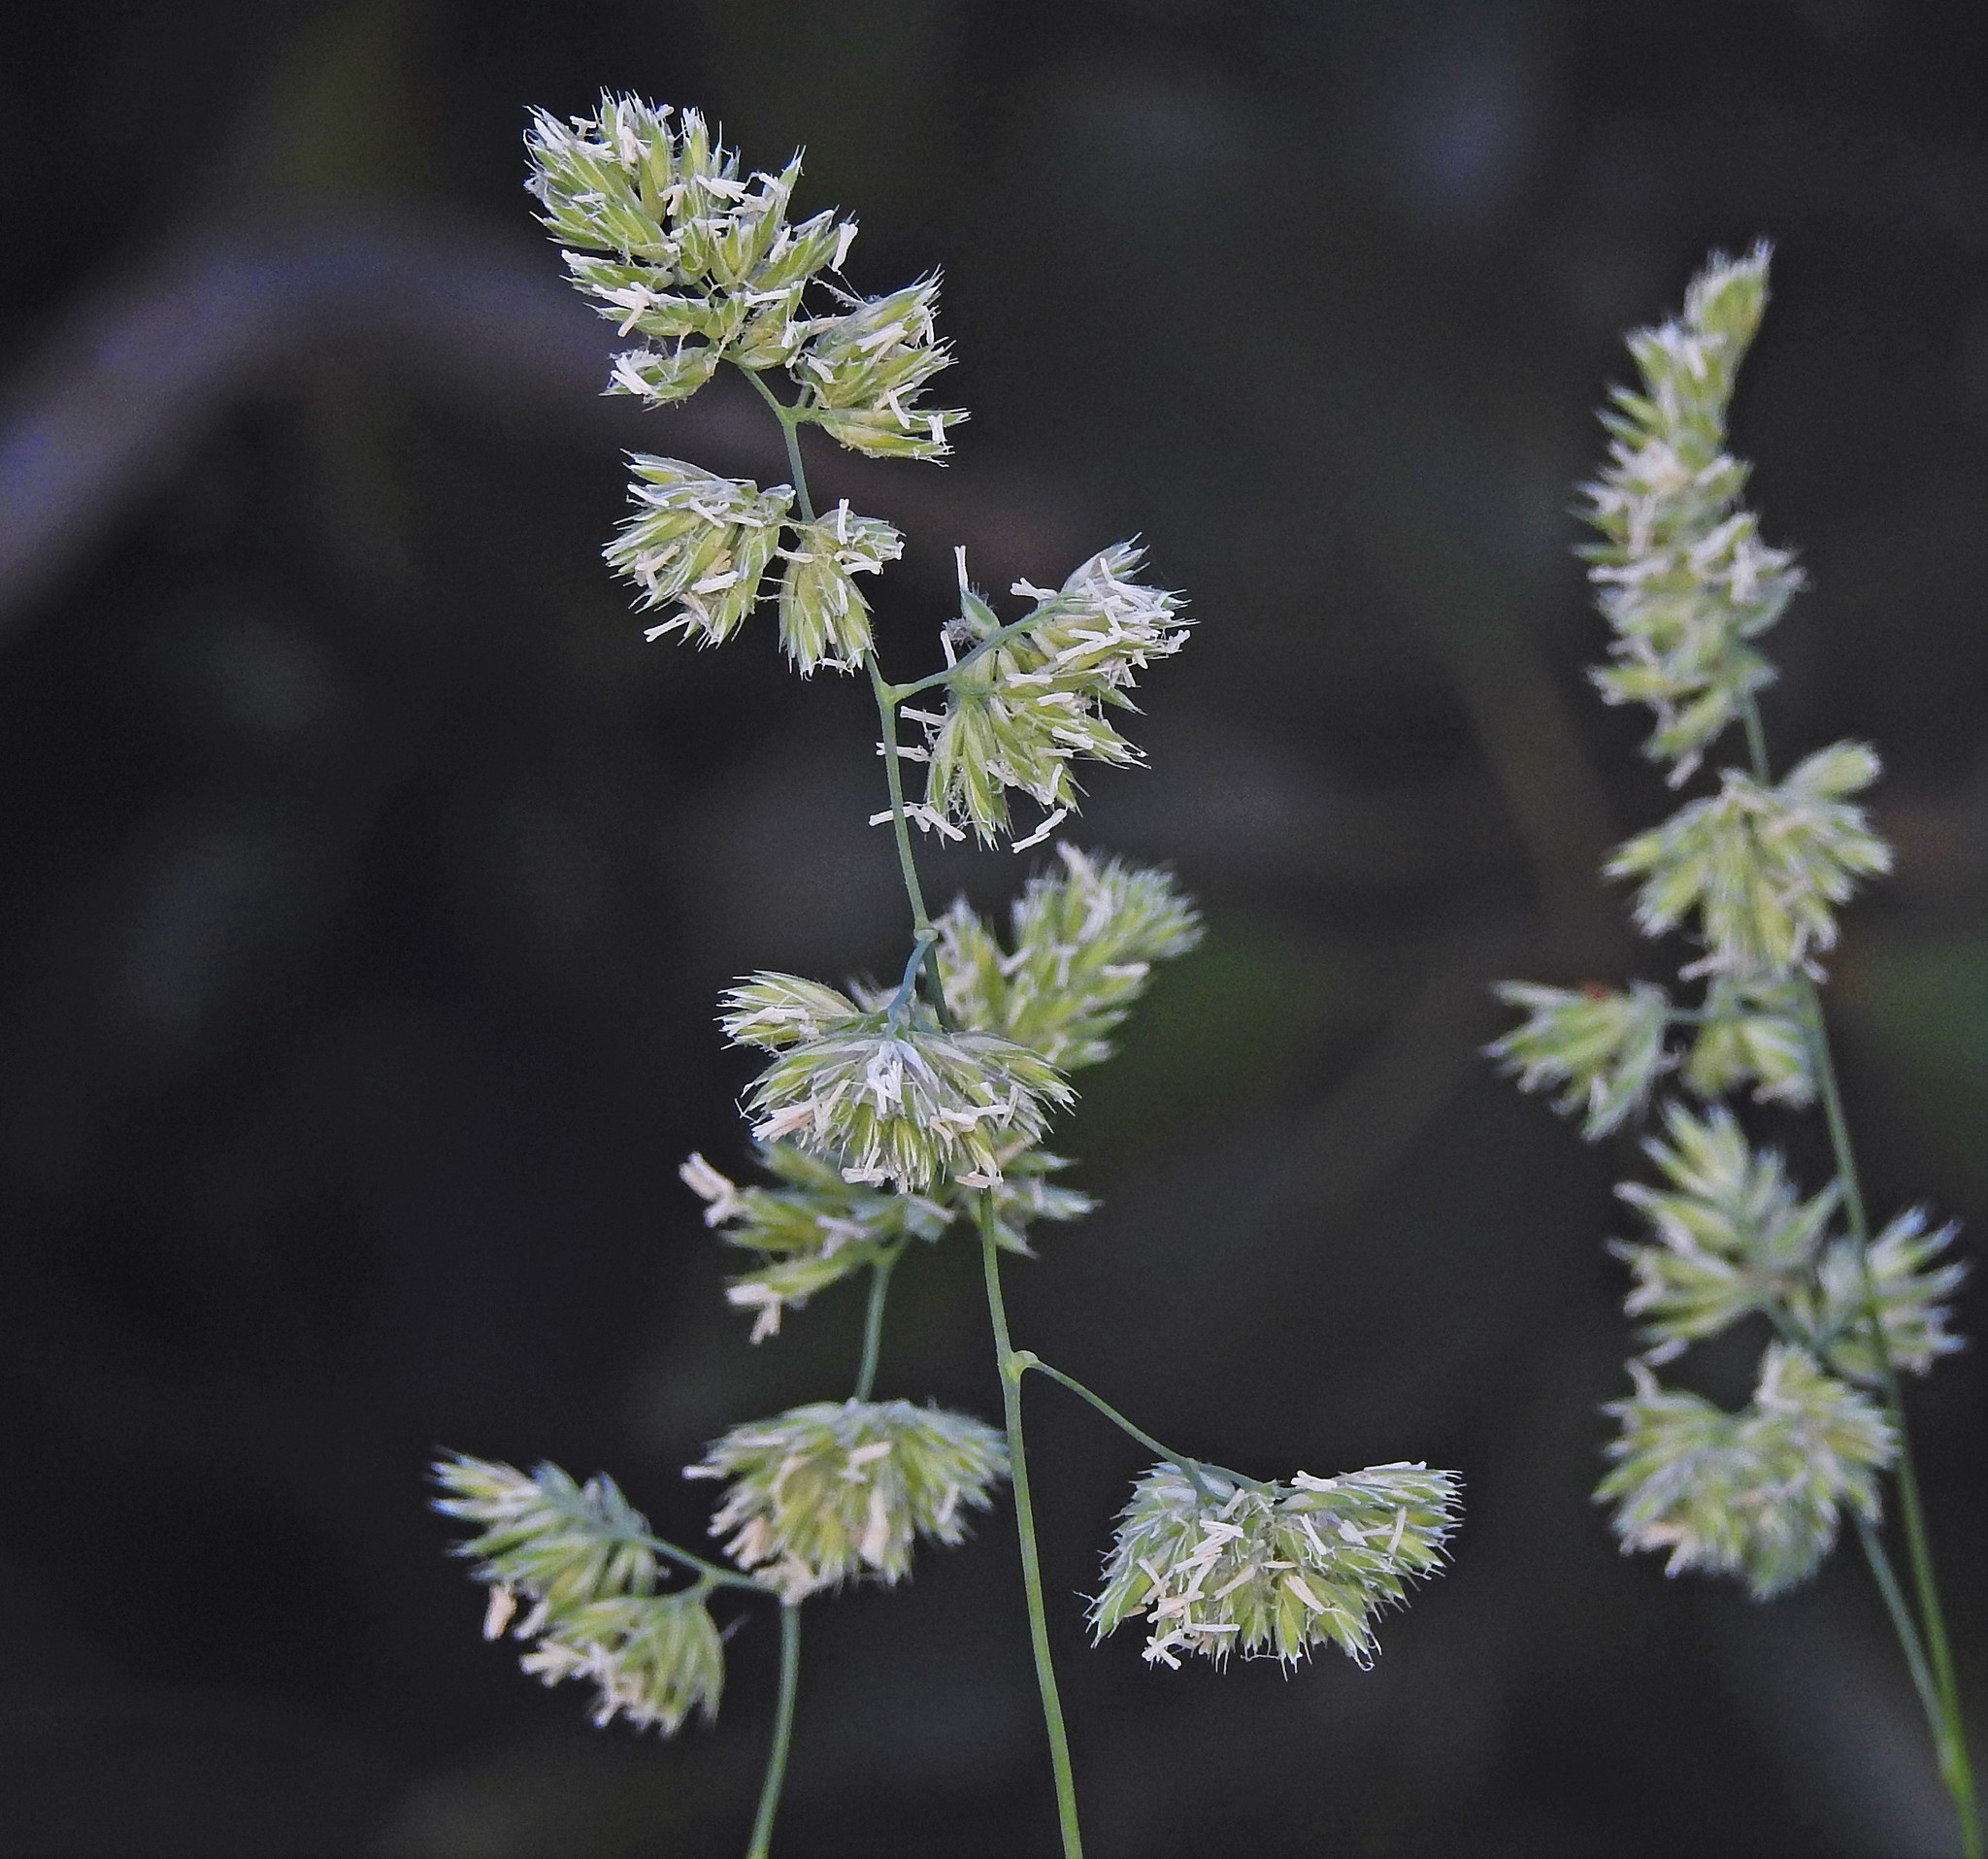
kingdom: Plantae
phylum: Tracheophyta
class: Liliopsida
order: Poales
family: Poaceae
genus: Dactylis
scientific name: Dactylis glomerata
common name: Orchardgrass
